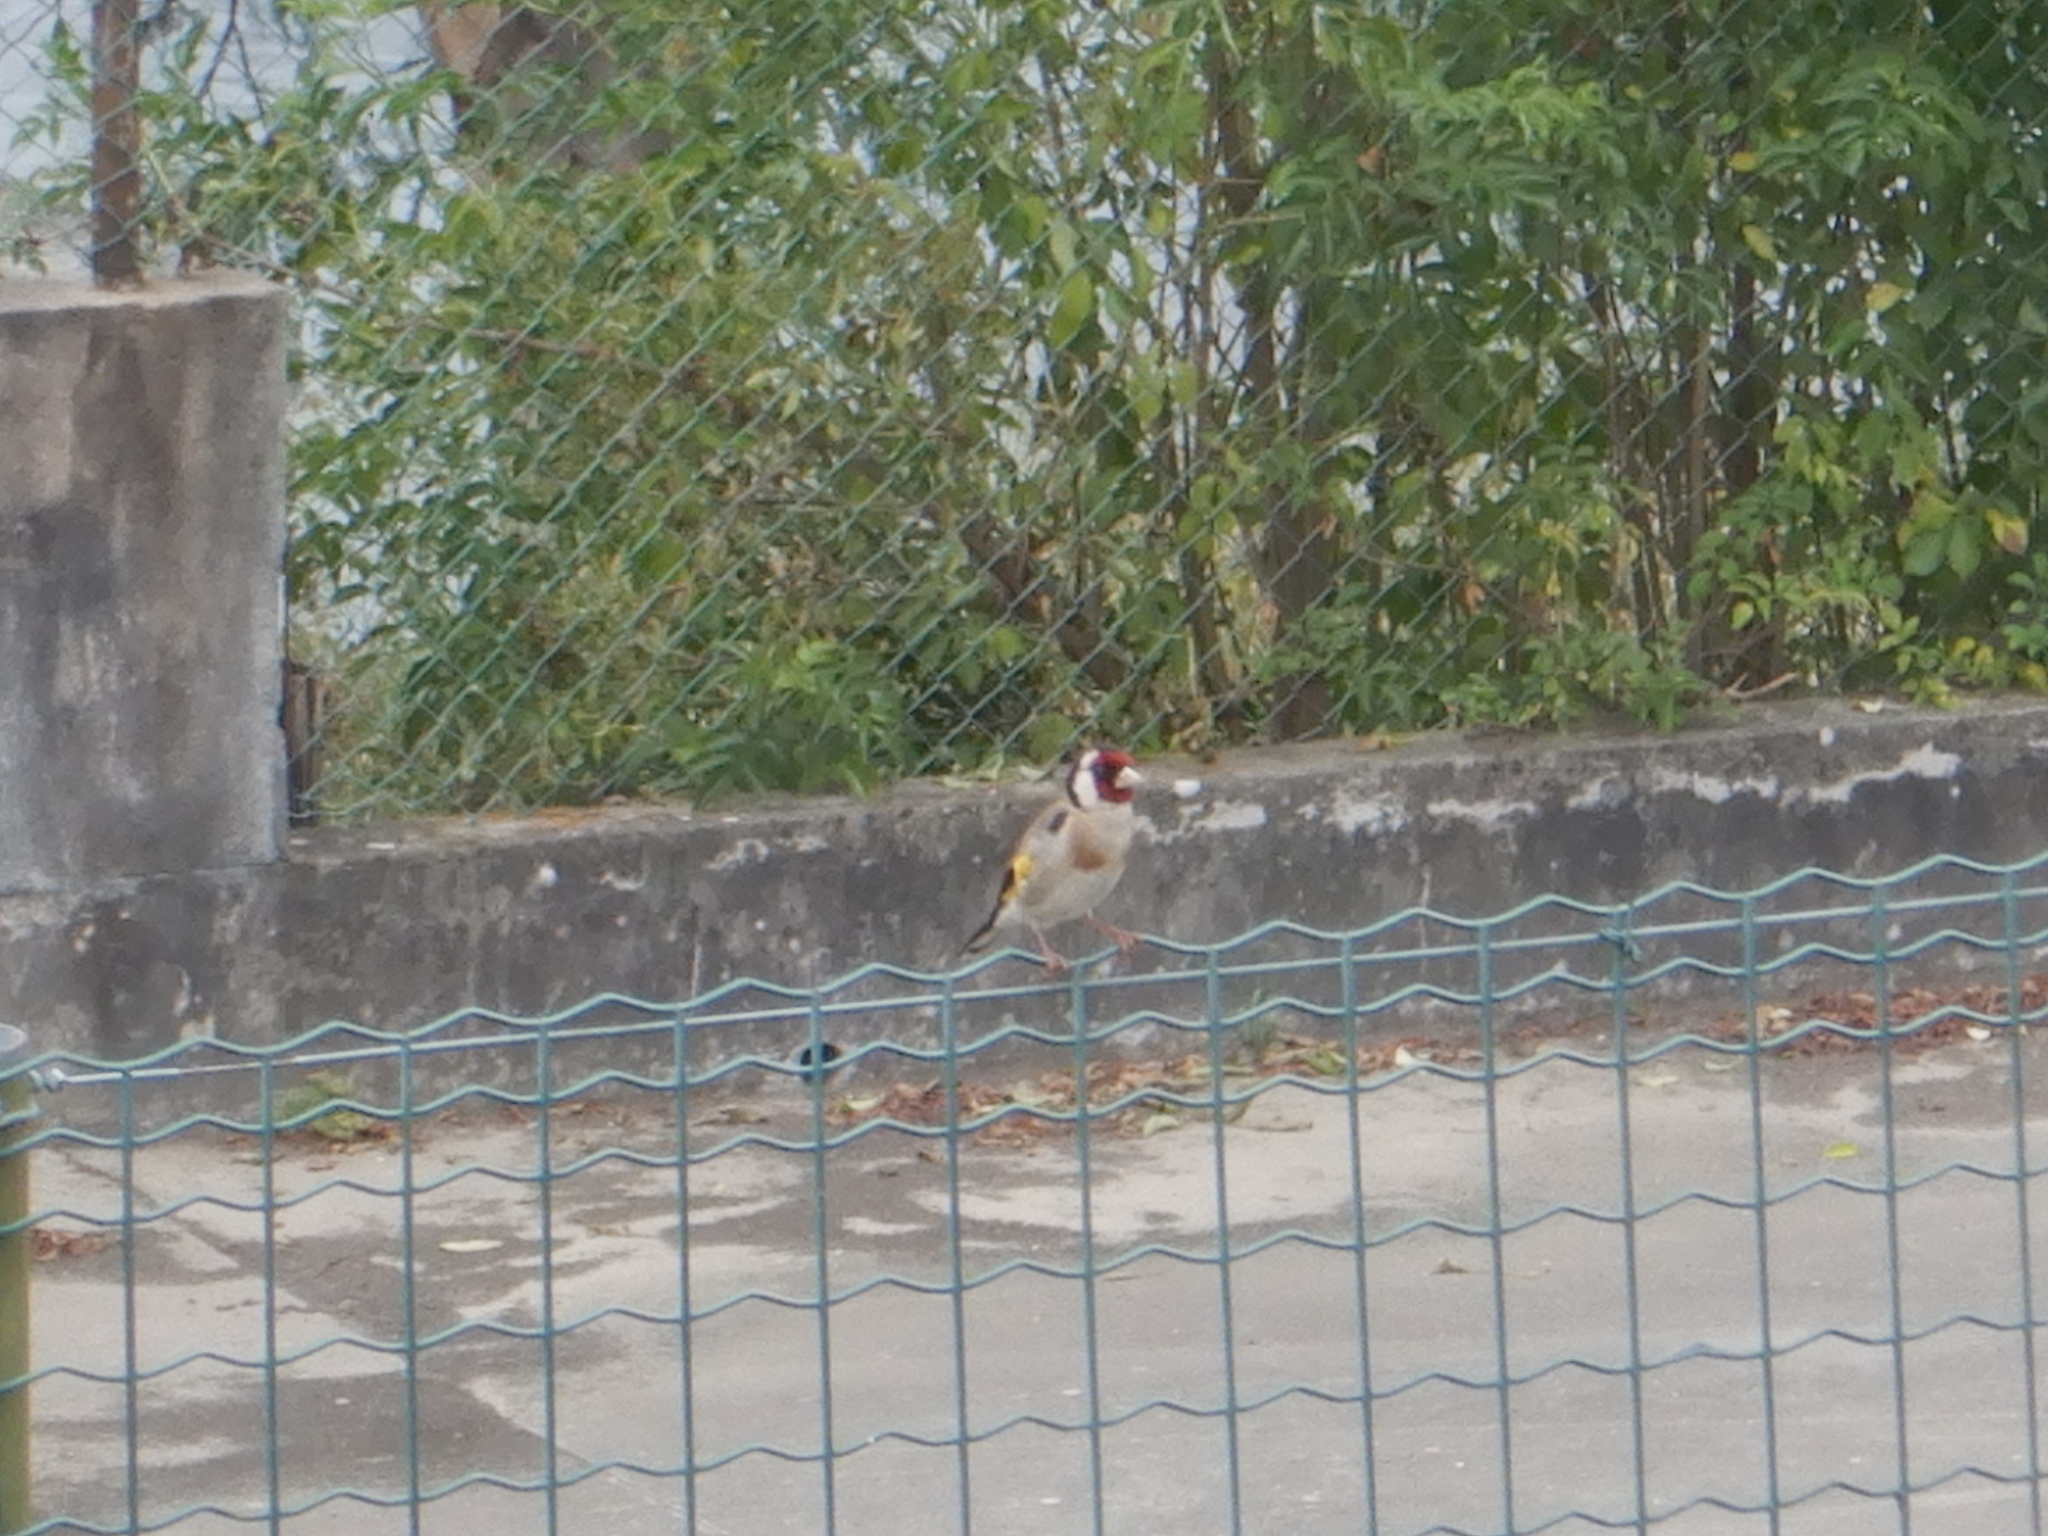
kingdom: Animalia
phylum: Chordata
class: Aves
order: Passeriformes
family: Fringillidae
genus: Carduelis
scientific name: Carduelis carduelis
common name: European goldfinch
